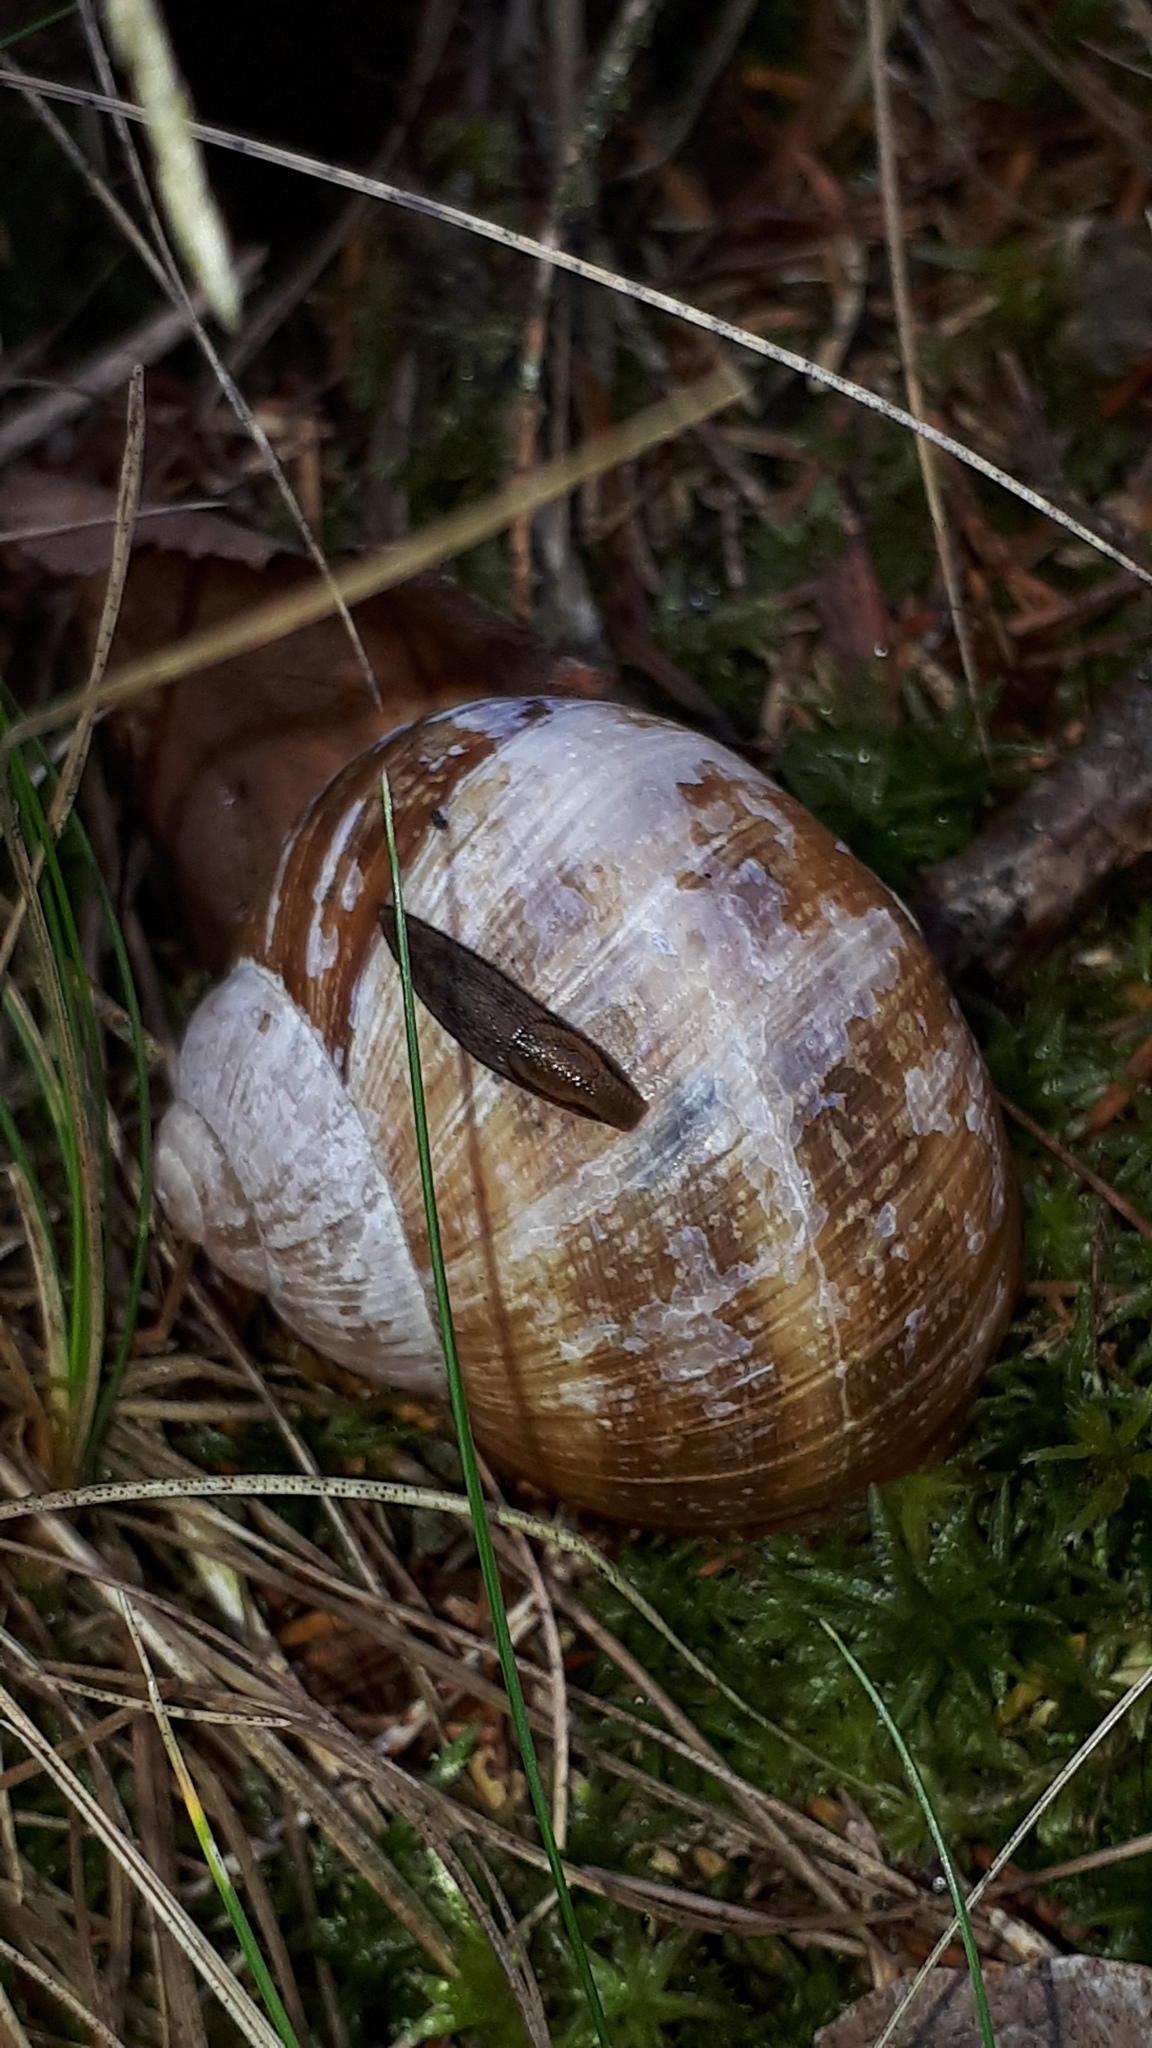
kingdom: Animalia
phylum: Mollusca
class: Gastropoda
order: Stylommatophora
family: Helicidae
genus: Helix
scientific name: Helix pomatia
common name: Roman snail
